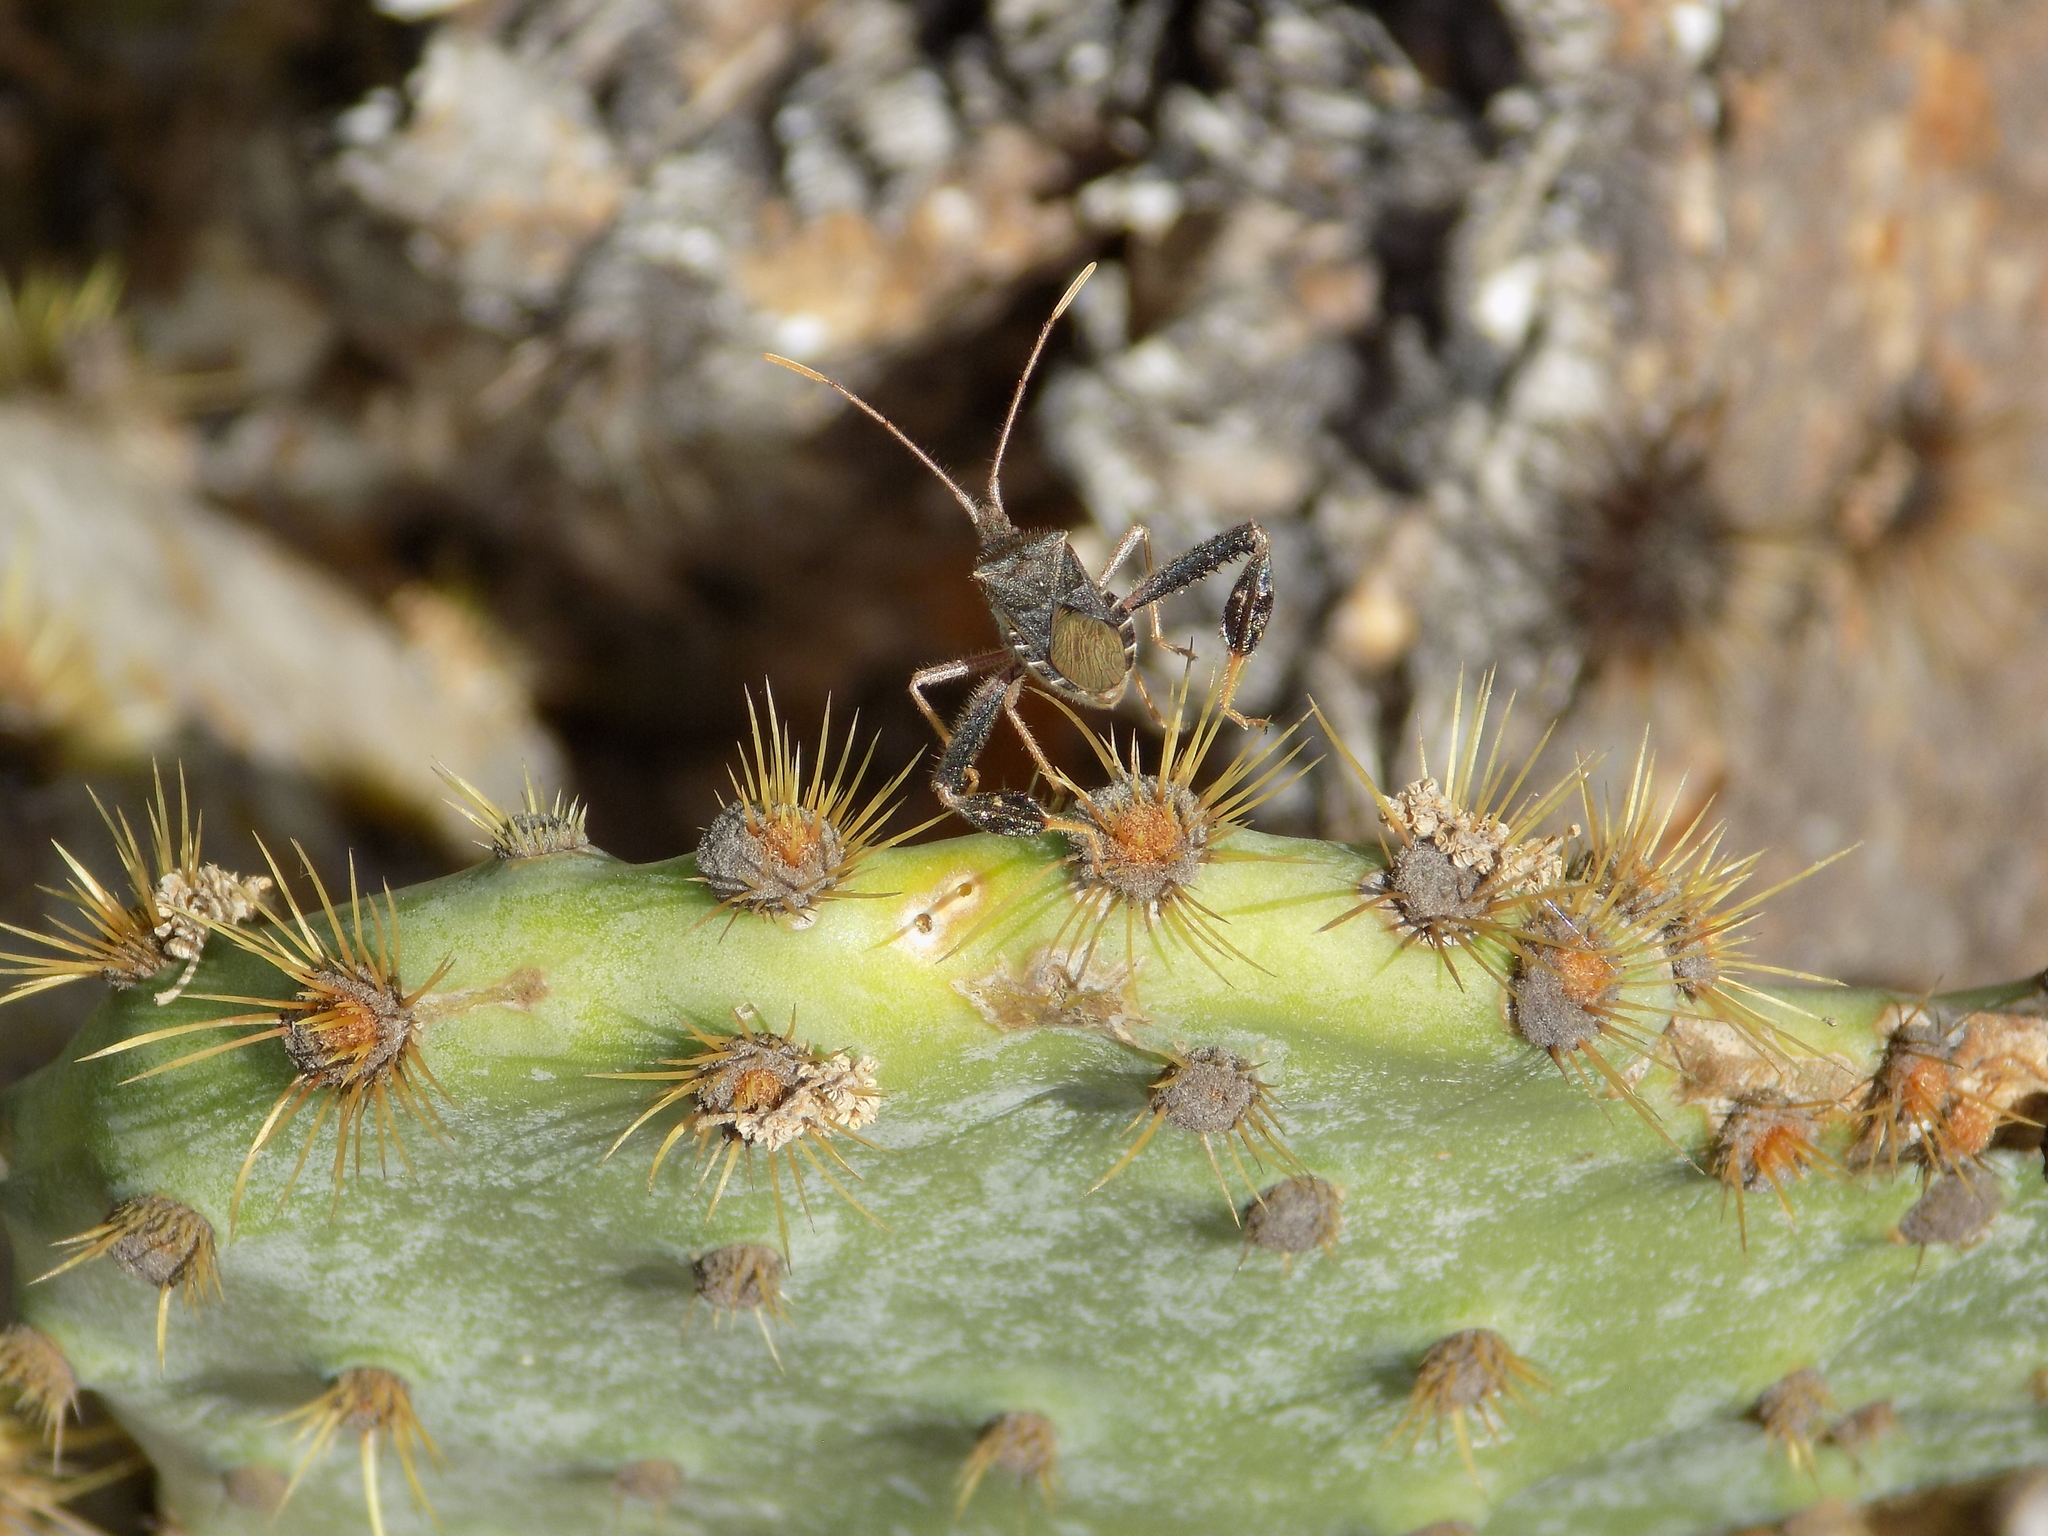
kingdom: Animalia
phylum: Arthropoda
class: Insecta
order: Hemiptera
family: Coreidae
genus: Narnia
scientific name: Narnia femorata
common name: Leaf-footed cactus bug
